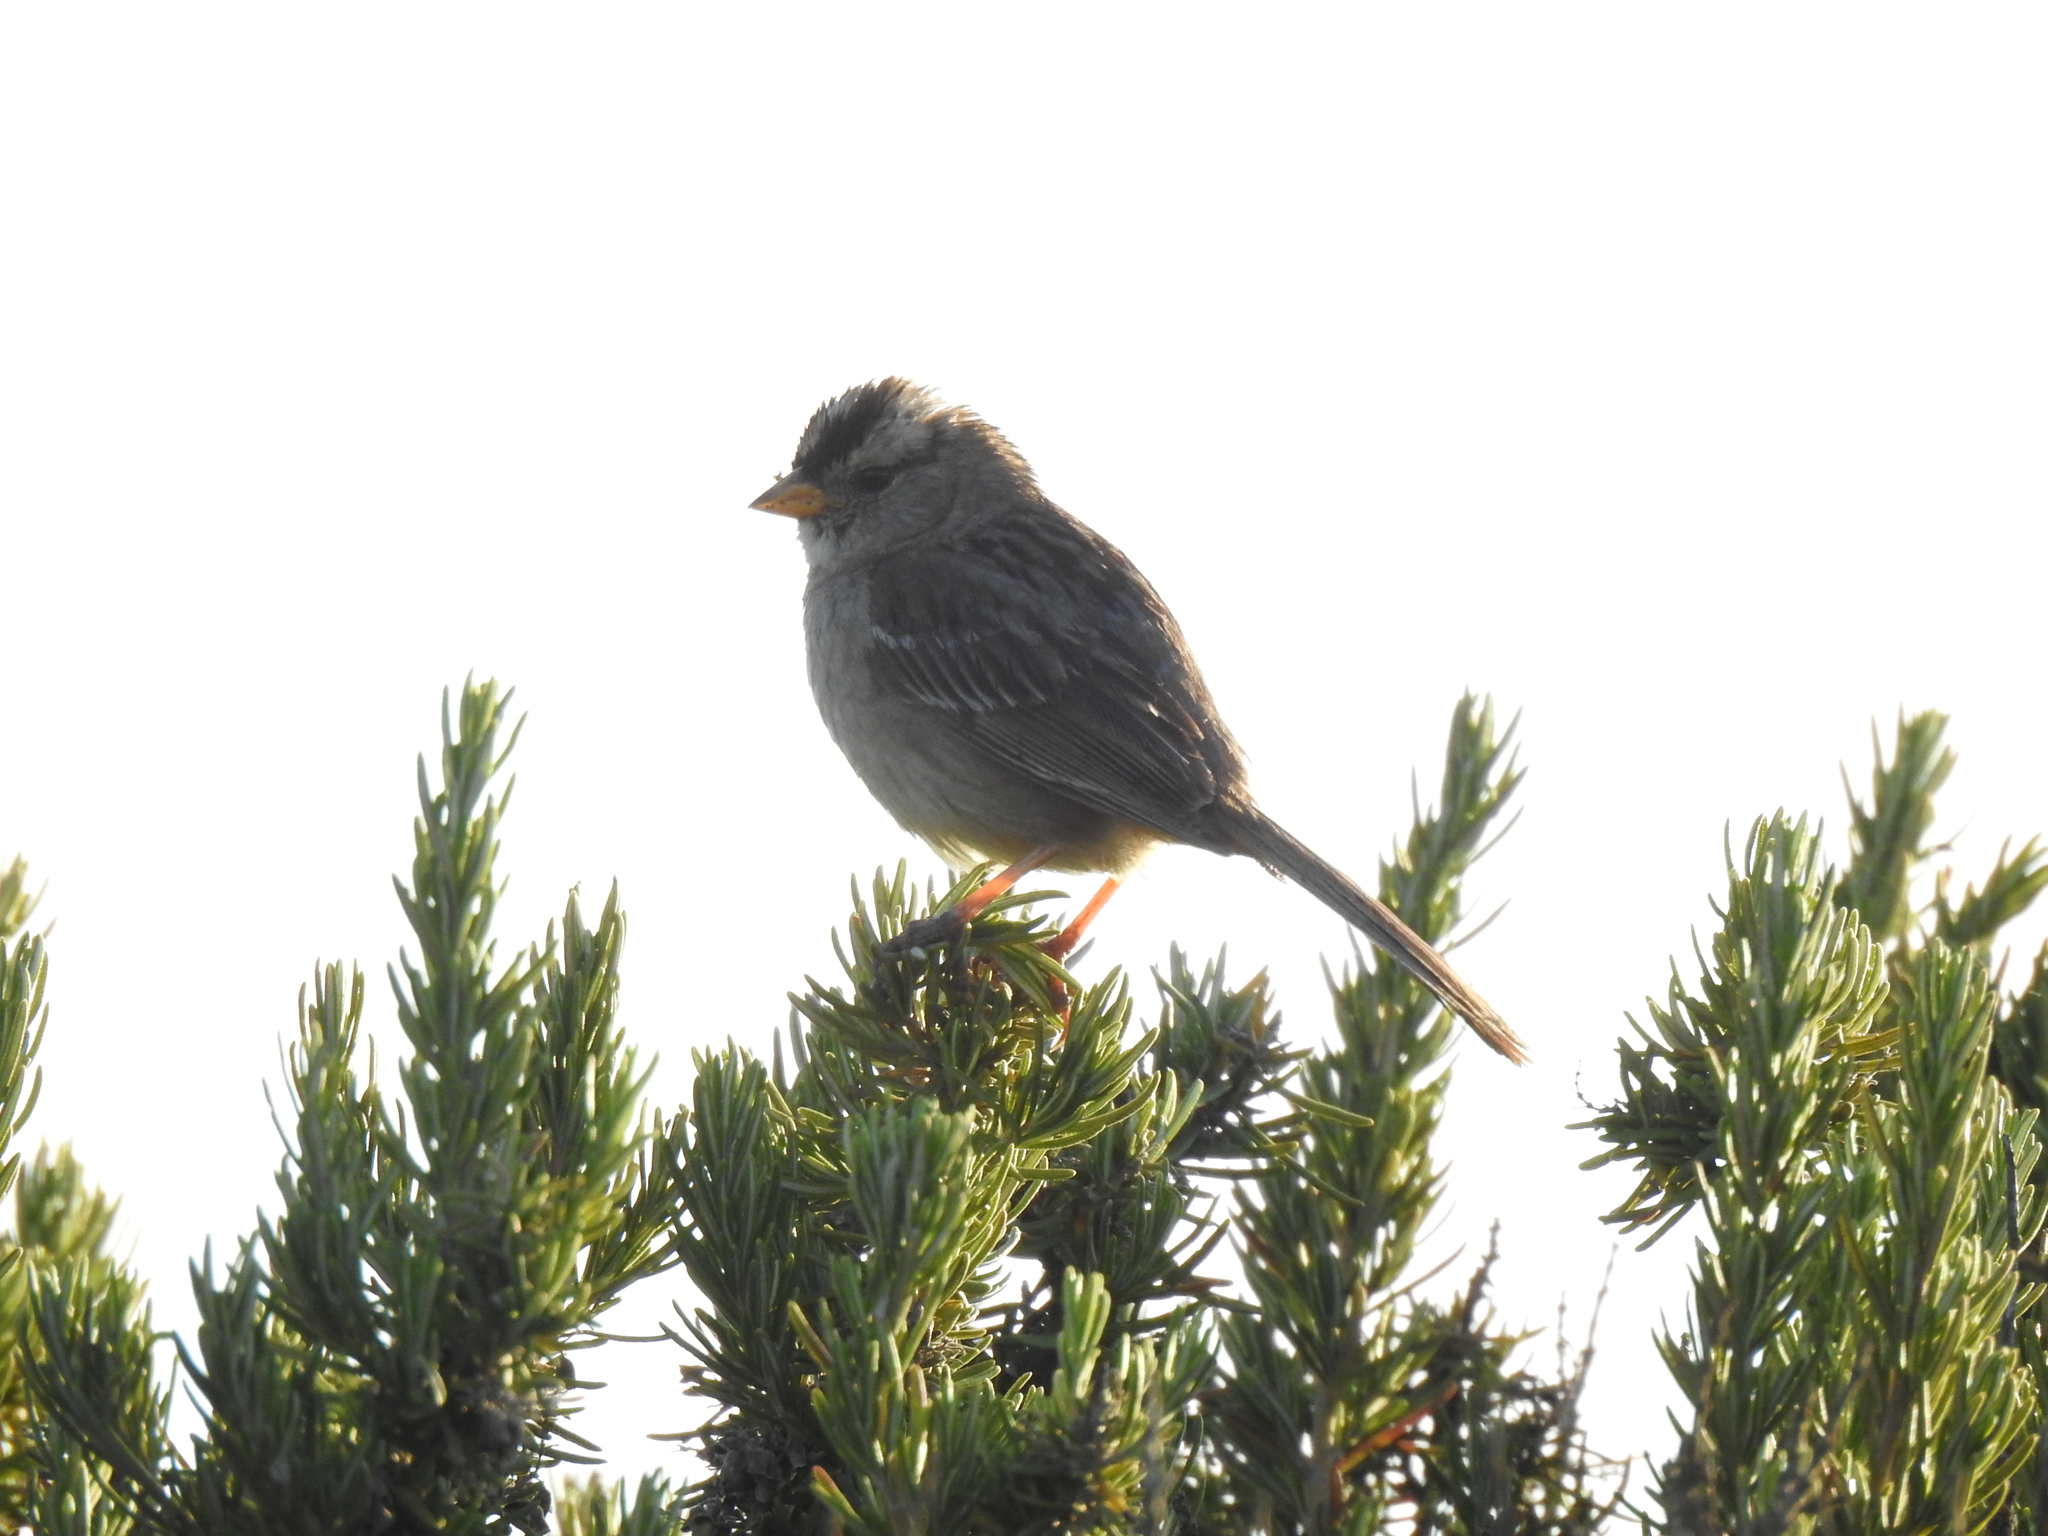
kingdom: Animalia
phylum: Chordata
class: Aves
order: Passeriformes
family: Passerellidae
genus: Zonotrichia
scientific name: Zonotrichia leucophrys
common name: White-crowned sparrow
